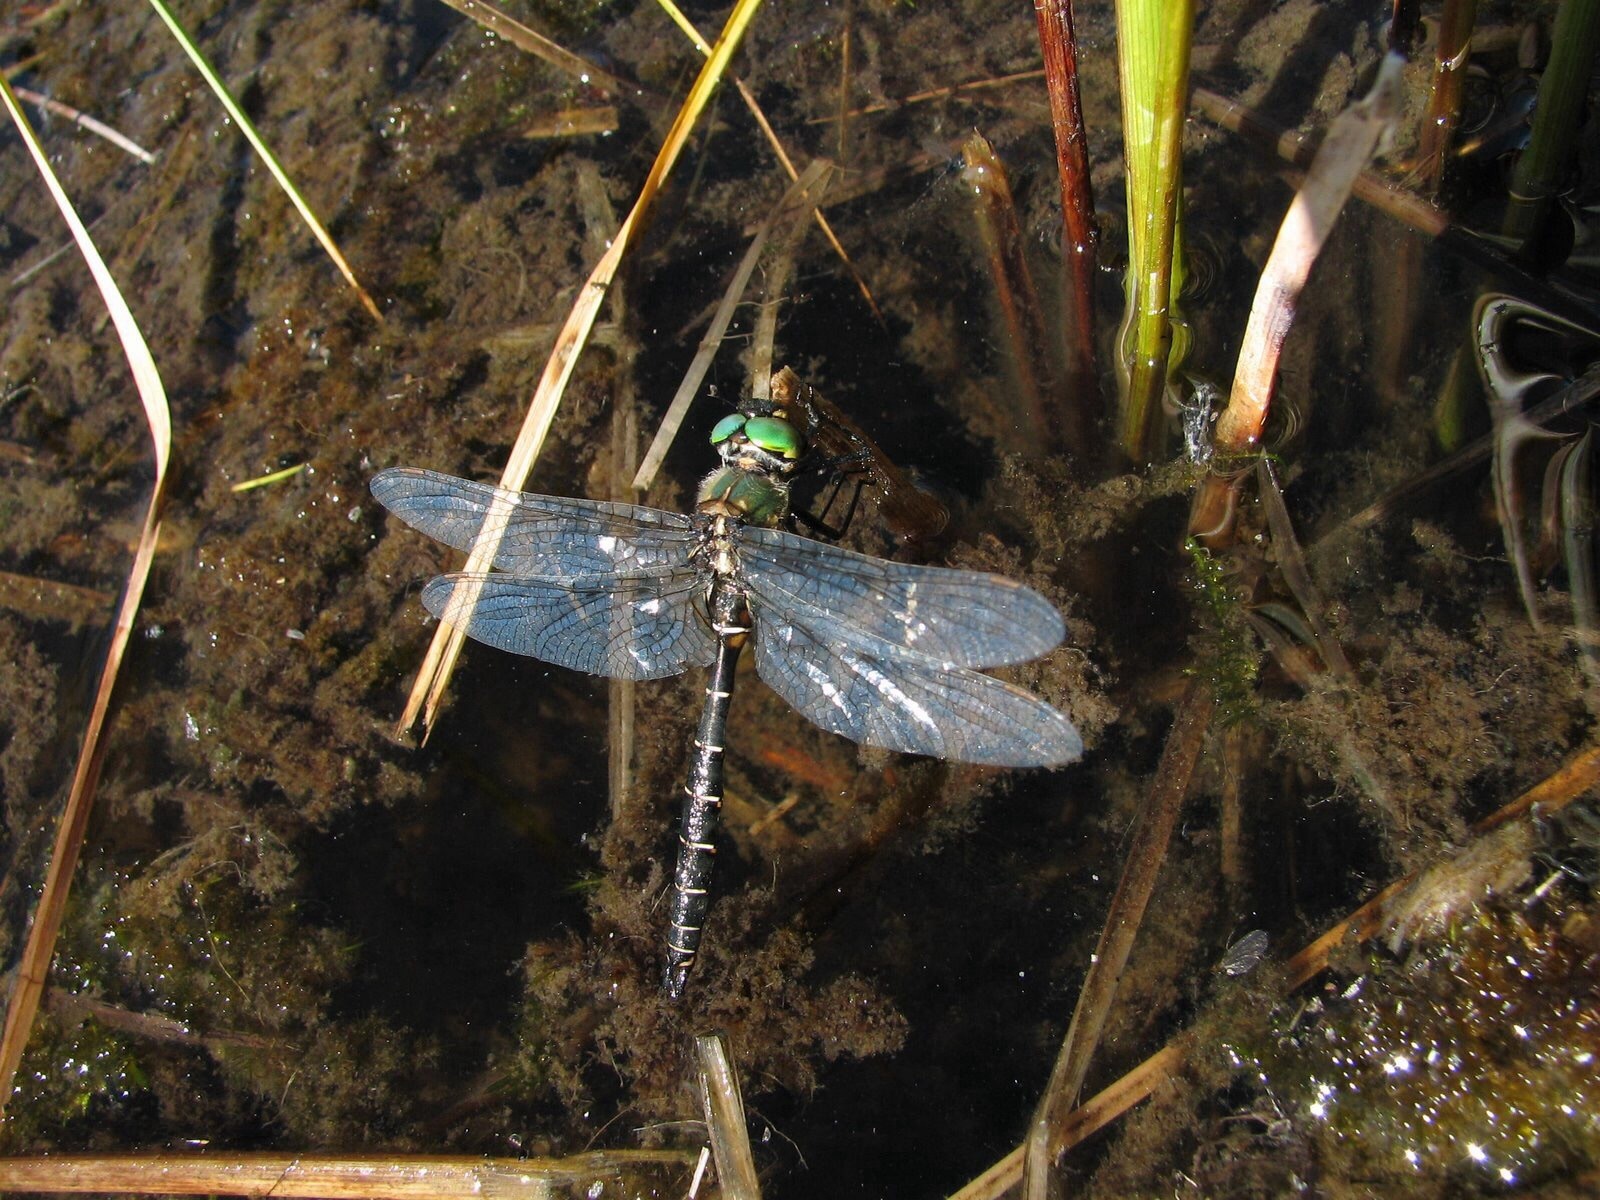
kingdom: Animalia
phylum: Arthropoda
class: Insecta
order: Odonata
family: Corduliidae
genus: Somatochlora
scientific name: Somatochlora albicincta
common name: Ringed emerald
